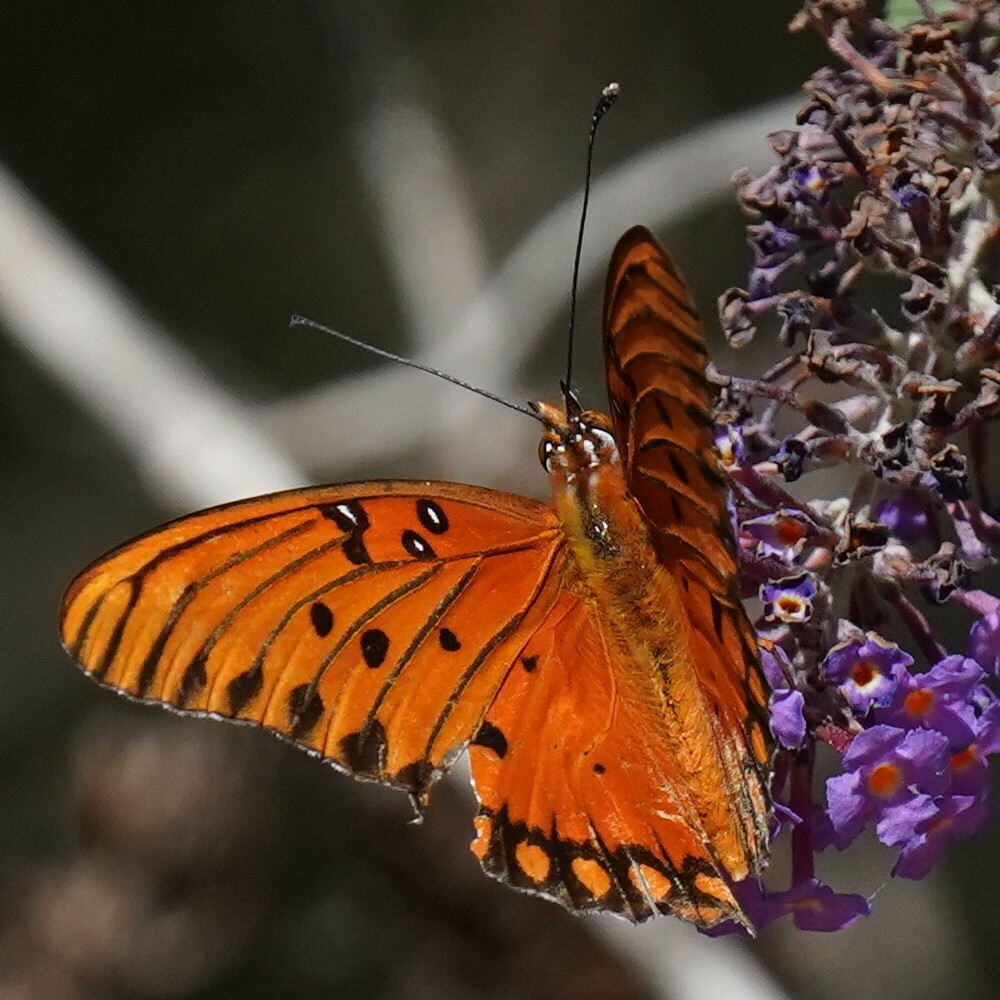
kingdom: Animalia
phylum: Arthropoda
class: Insecta
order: Lepidoptera
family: Nymphalidae
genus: Dione
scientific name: Dione vanillae
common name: Gulf fritillary
